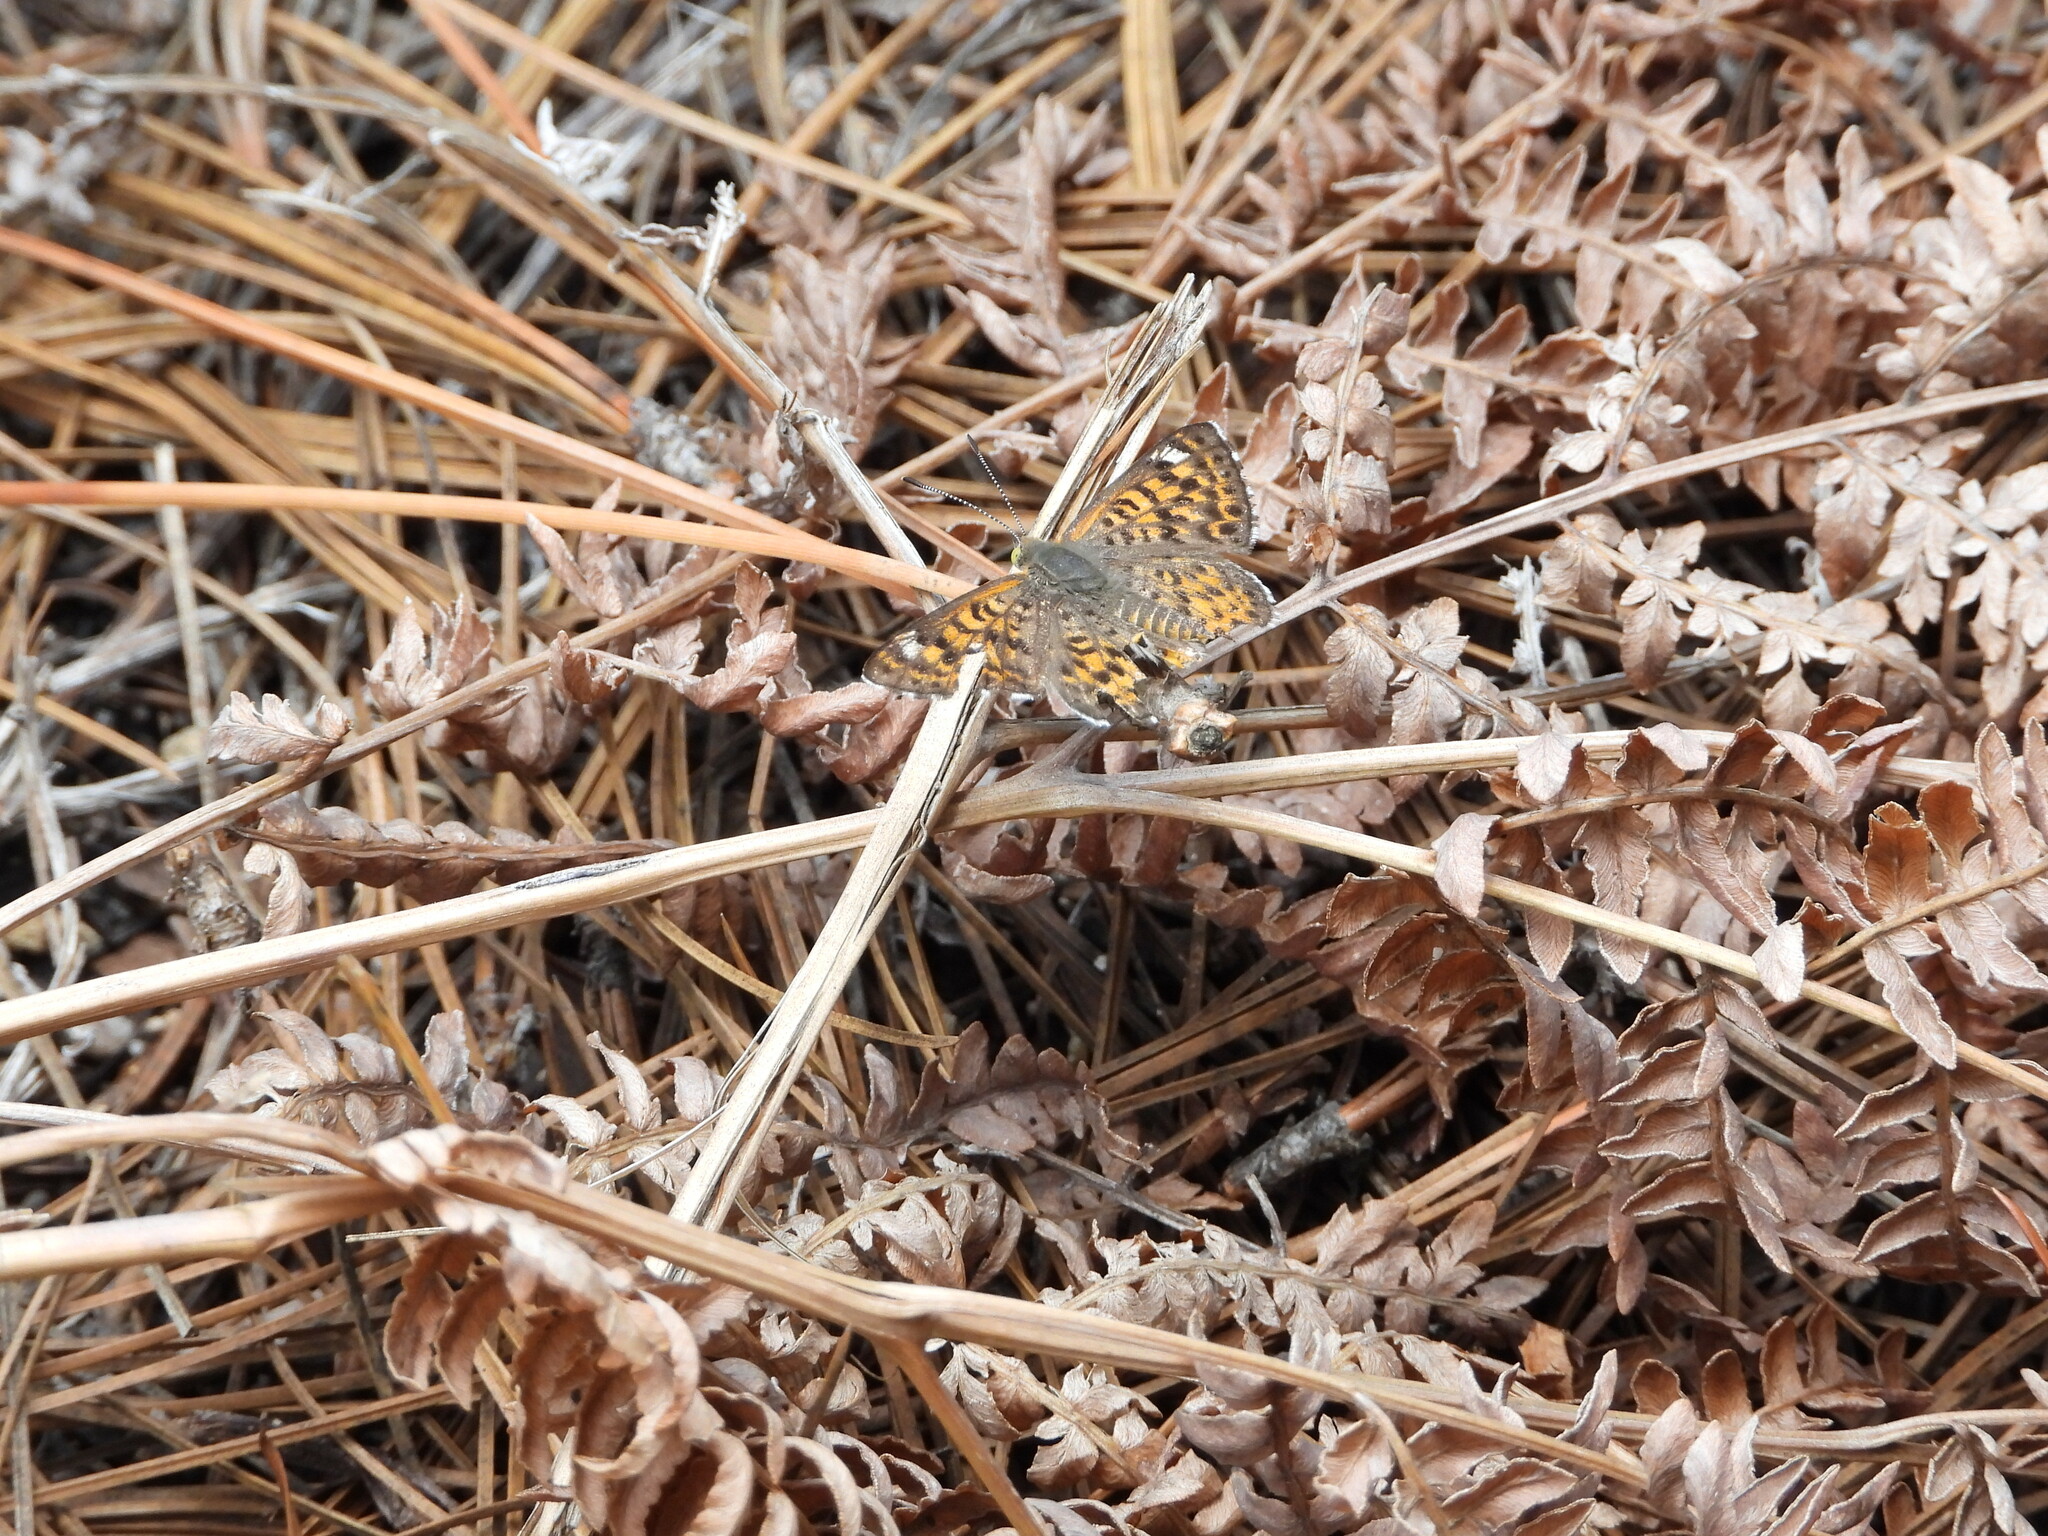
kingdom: Animalia
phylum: Arthropoda
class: Insecta
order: Lepidoptera
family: Riodinidae
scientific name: Riodinidae
